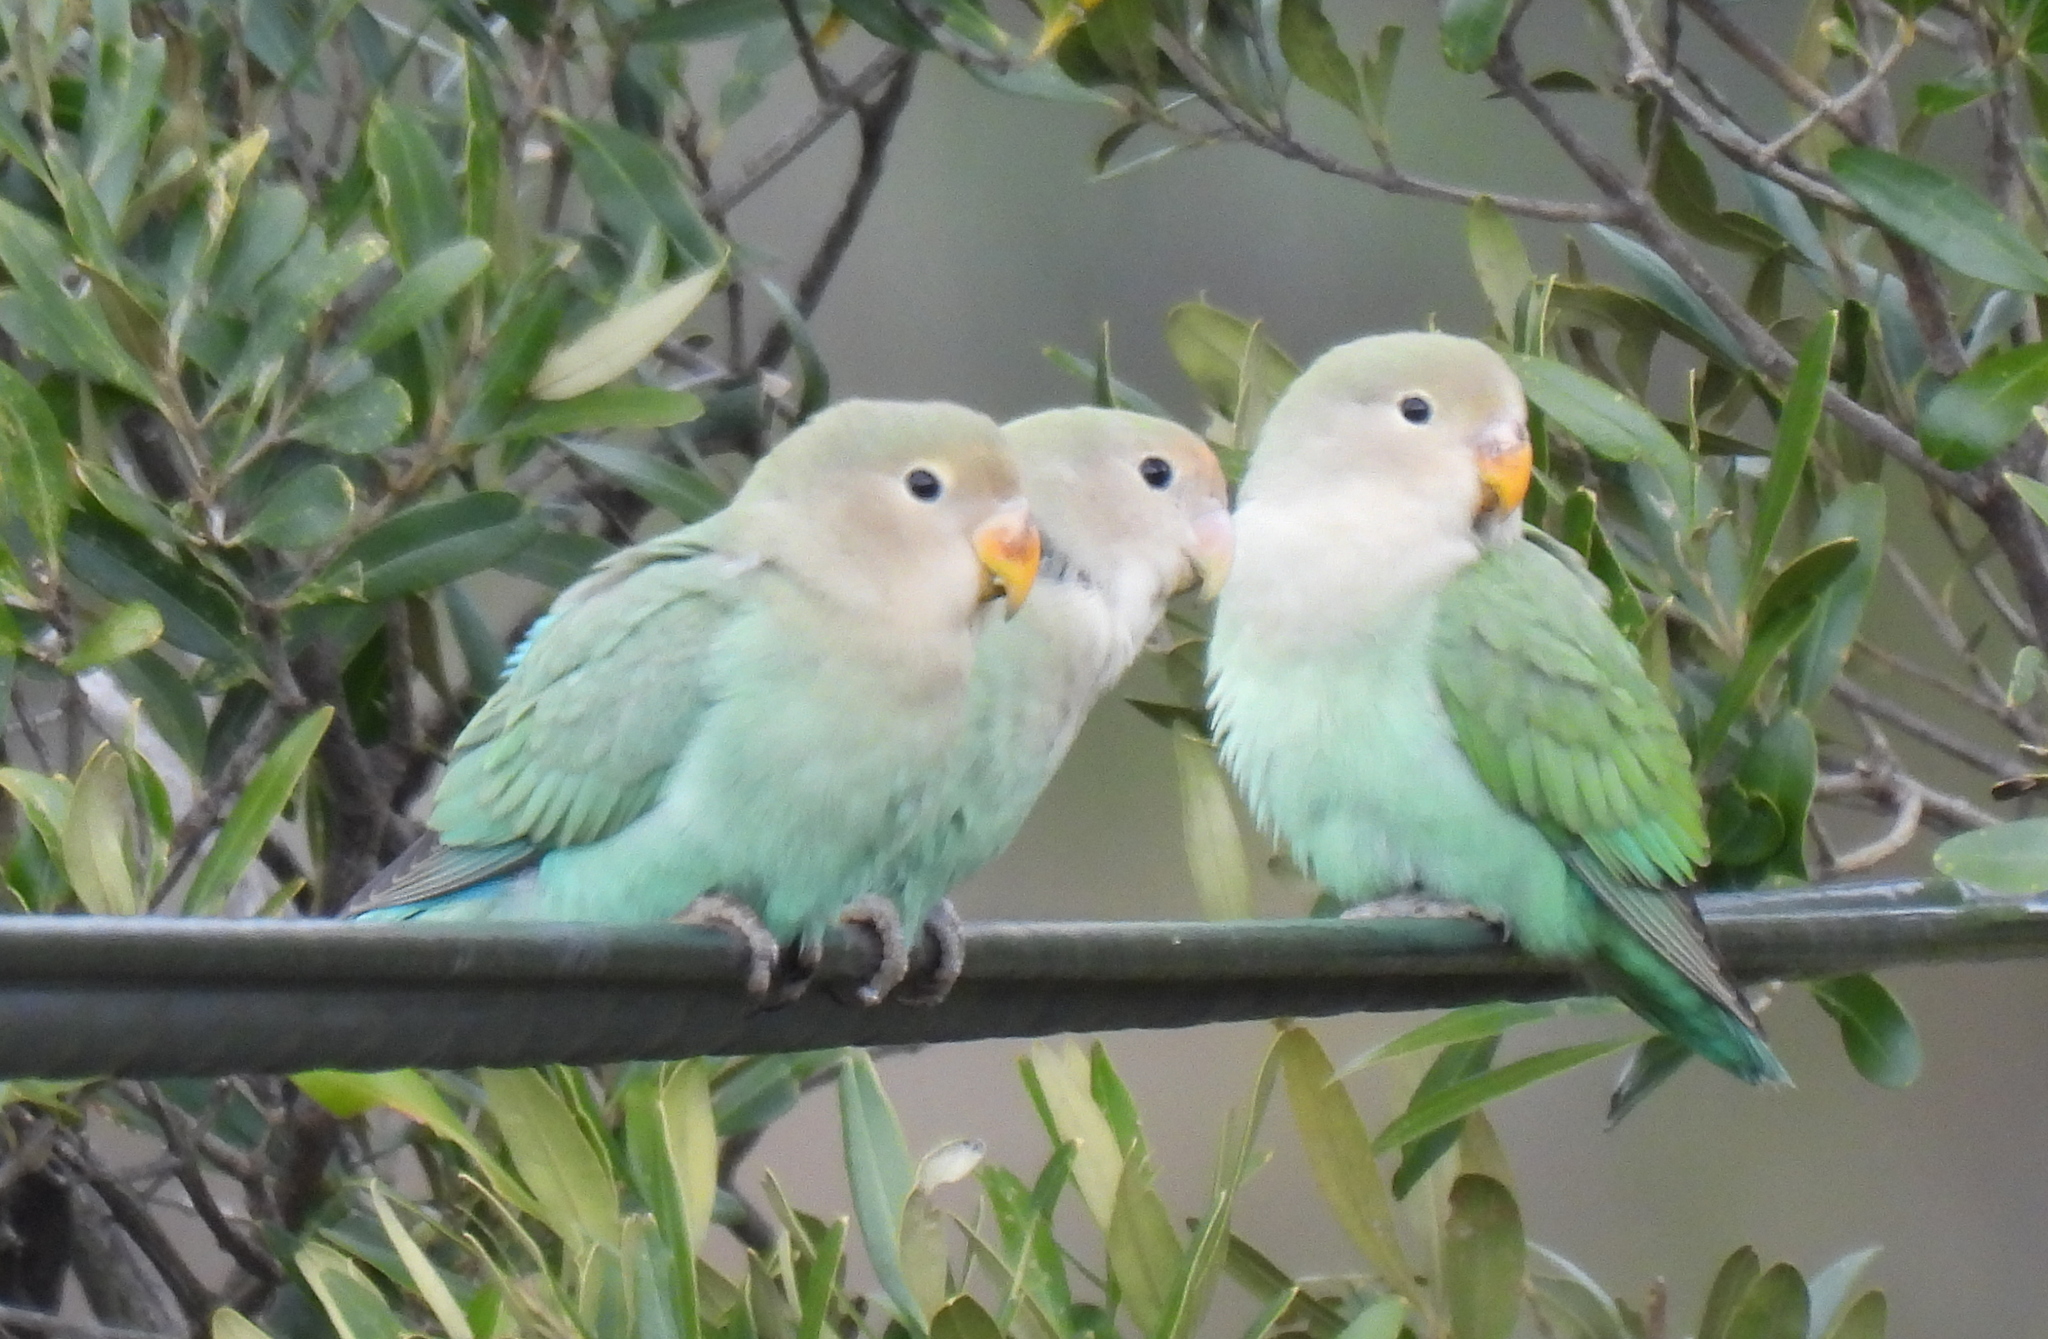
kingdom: Animalia
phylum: Chordata
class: Aves
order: Psittaciformes
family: Psittacidae
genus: Agapornis
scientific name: Agapornis roseicollis
